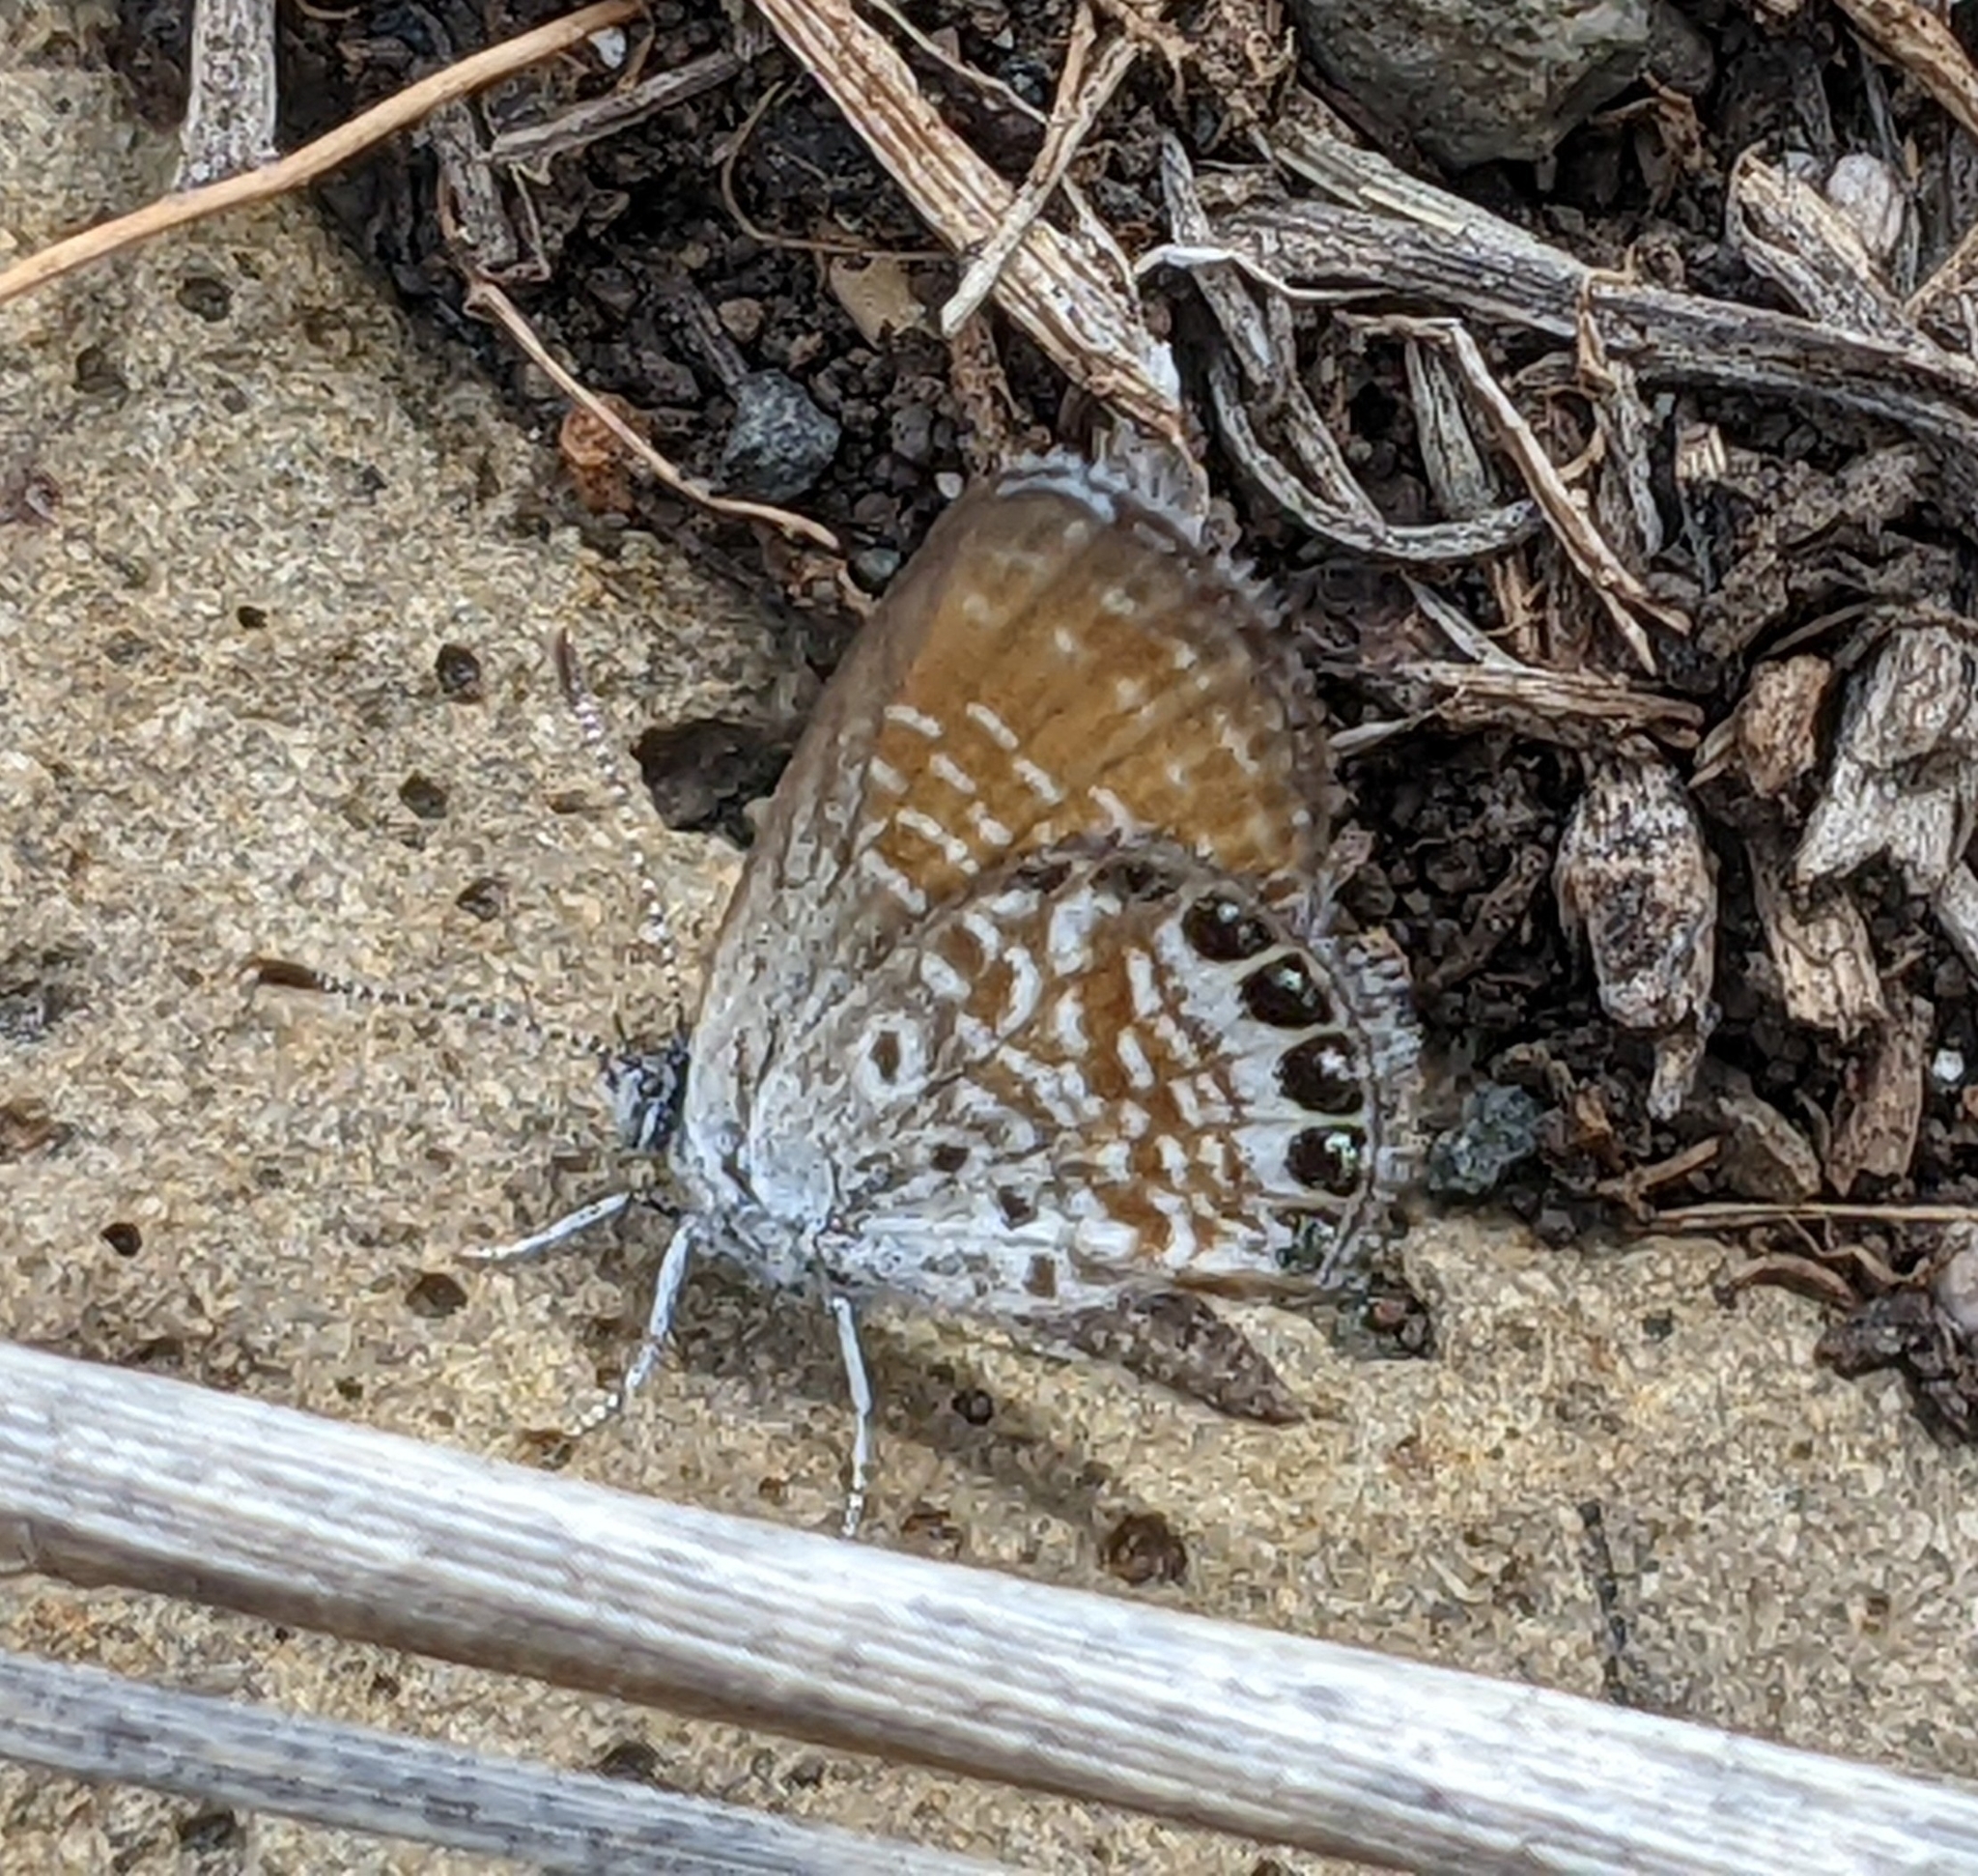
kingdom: Animalia
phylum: Arthropoda
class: Insecta
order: Lepidoptera
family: Lycaenidae
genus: Brephidium
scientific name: Brephidium exilis
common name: Pygmy blue
